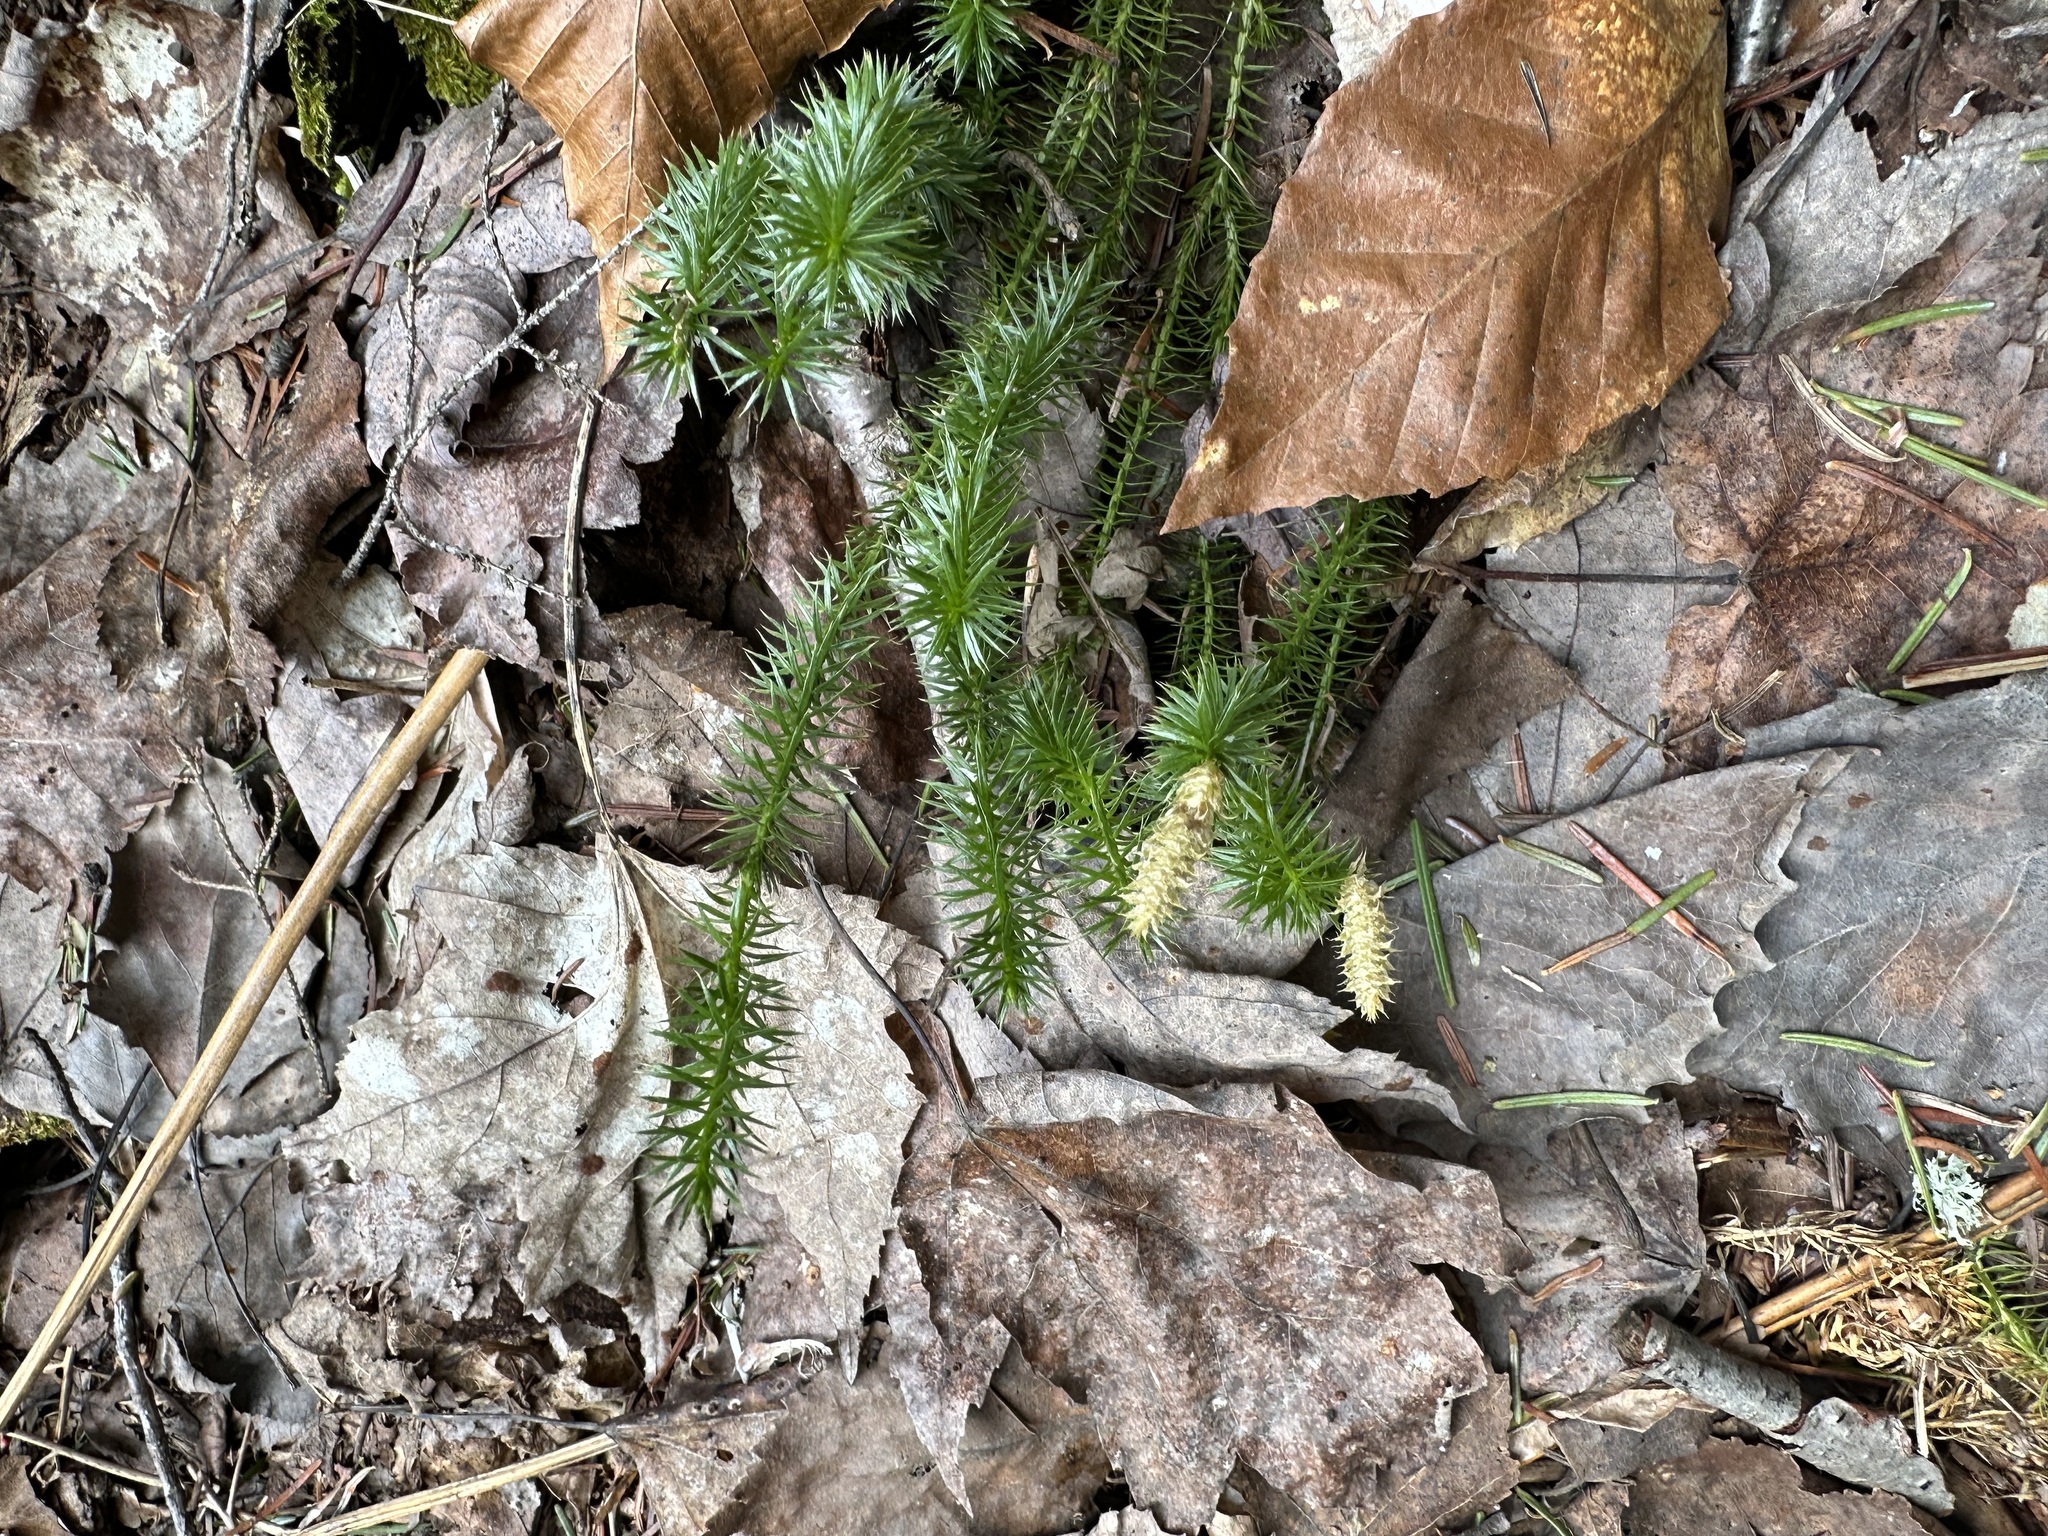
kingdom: Plantae
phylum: Tracheophyta
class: Lycopodiopsida
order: Lycopodiales
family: Lycopodiaceae
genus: Spinulum
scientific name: Spinulum annotinum
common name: Interrupted club-moss
